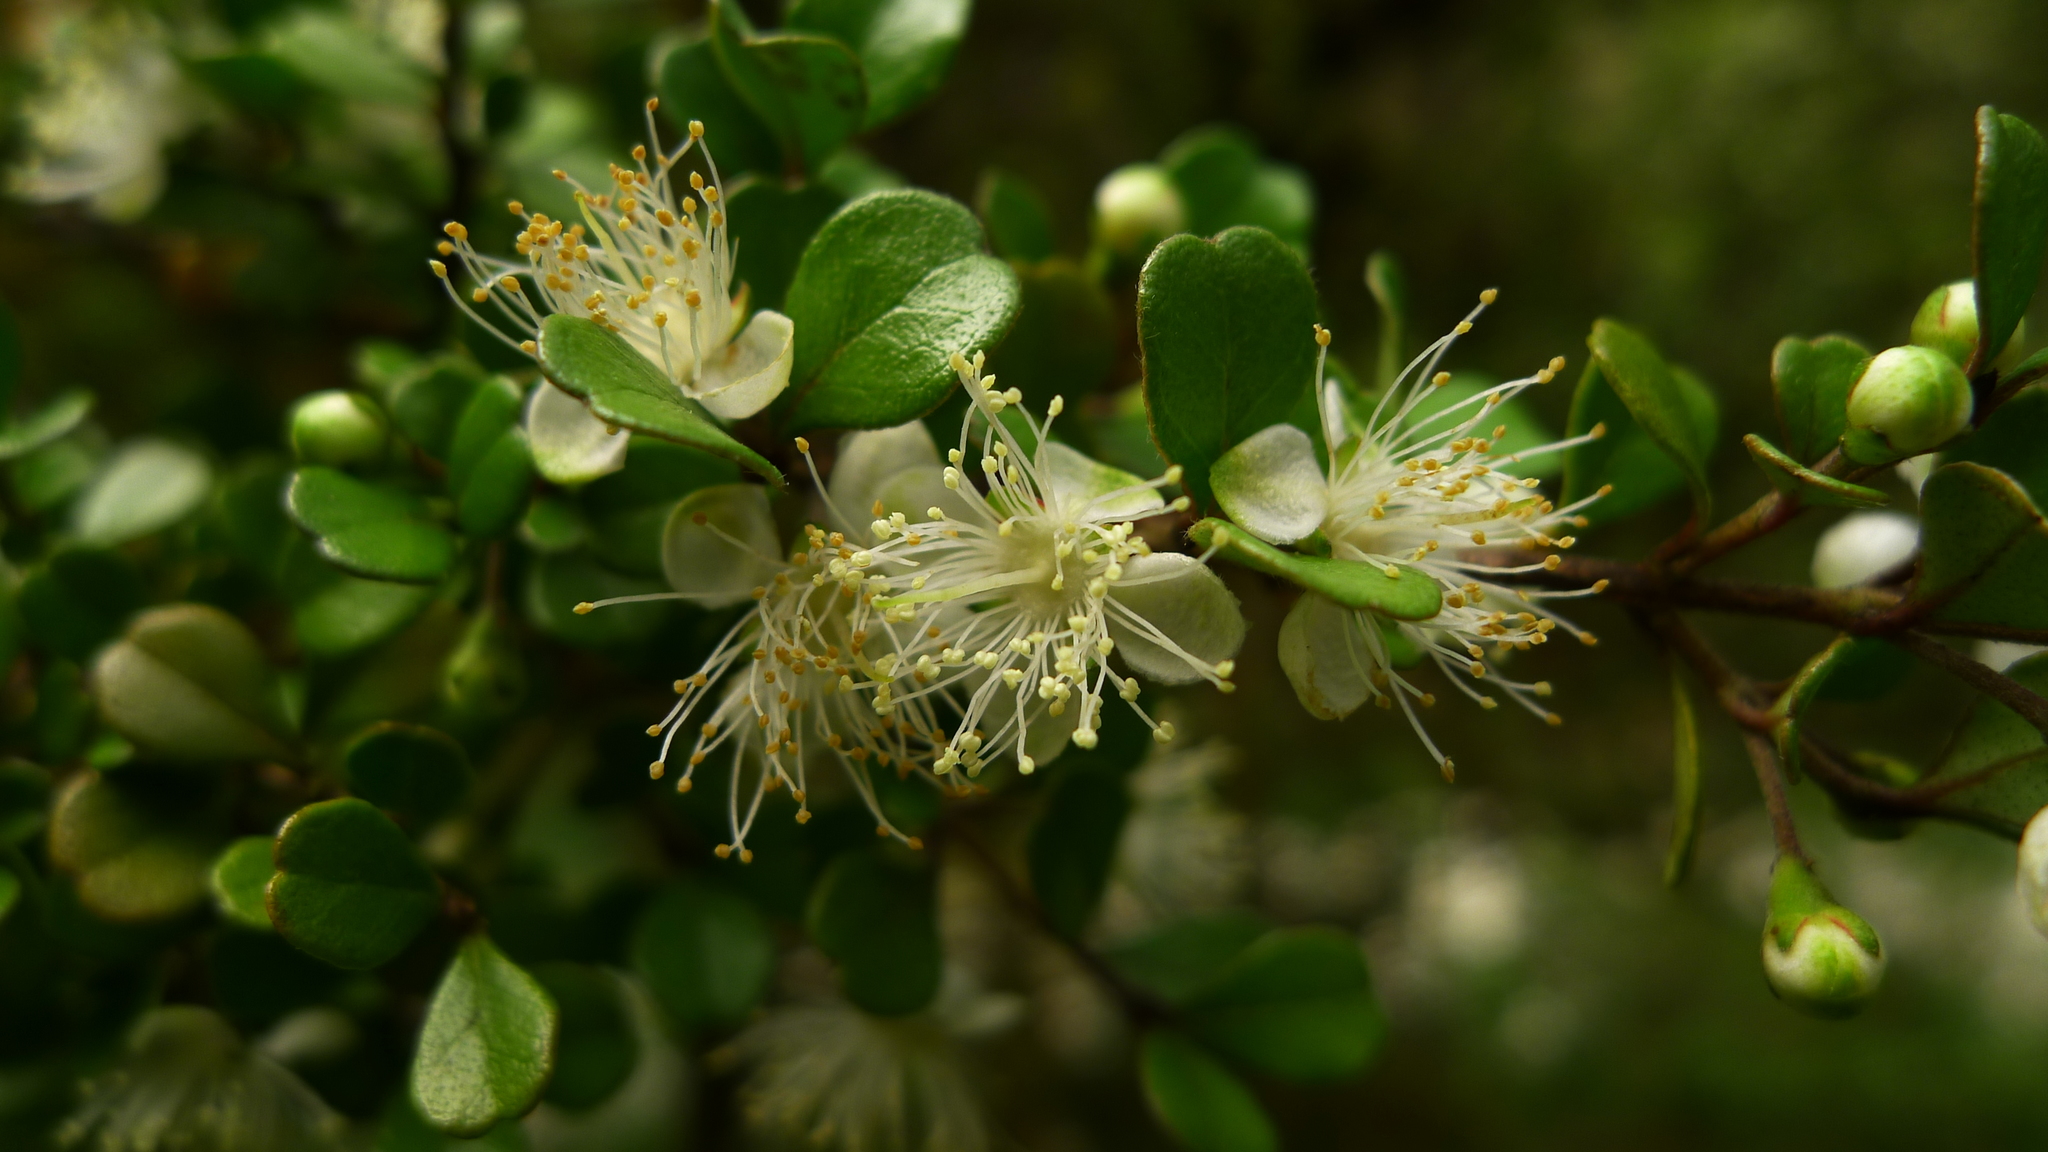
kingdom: Plantae
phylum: Tracheophyta
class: Magnoliopsida
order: Myrtales
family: Myrtaceae
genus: Lophomyrtus
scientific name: Lophomyrtus obcordata
